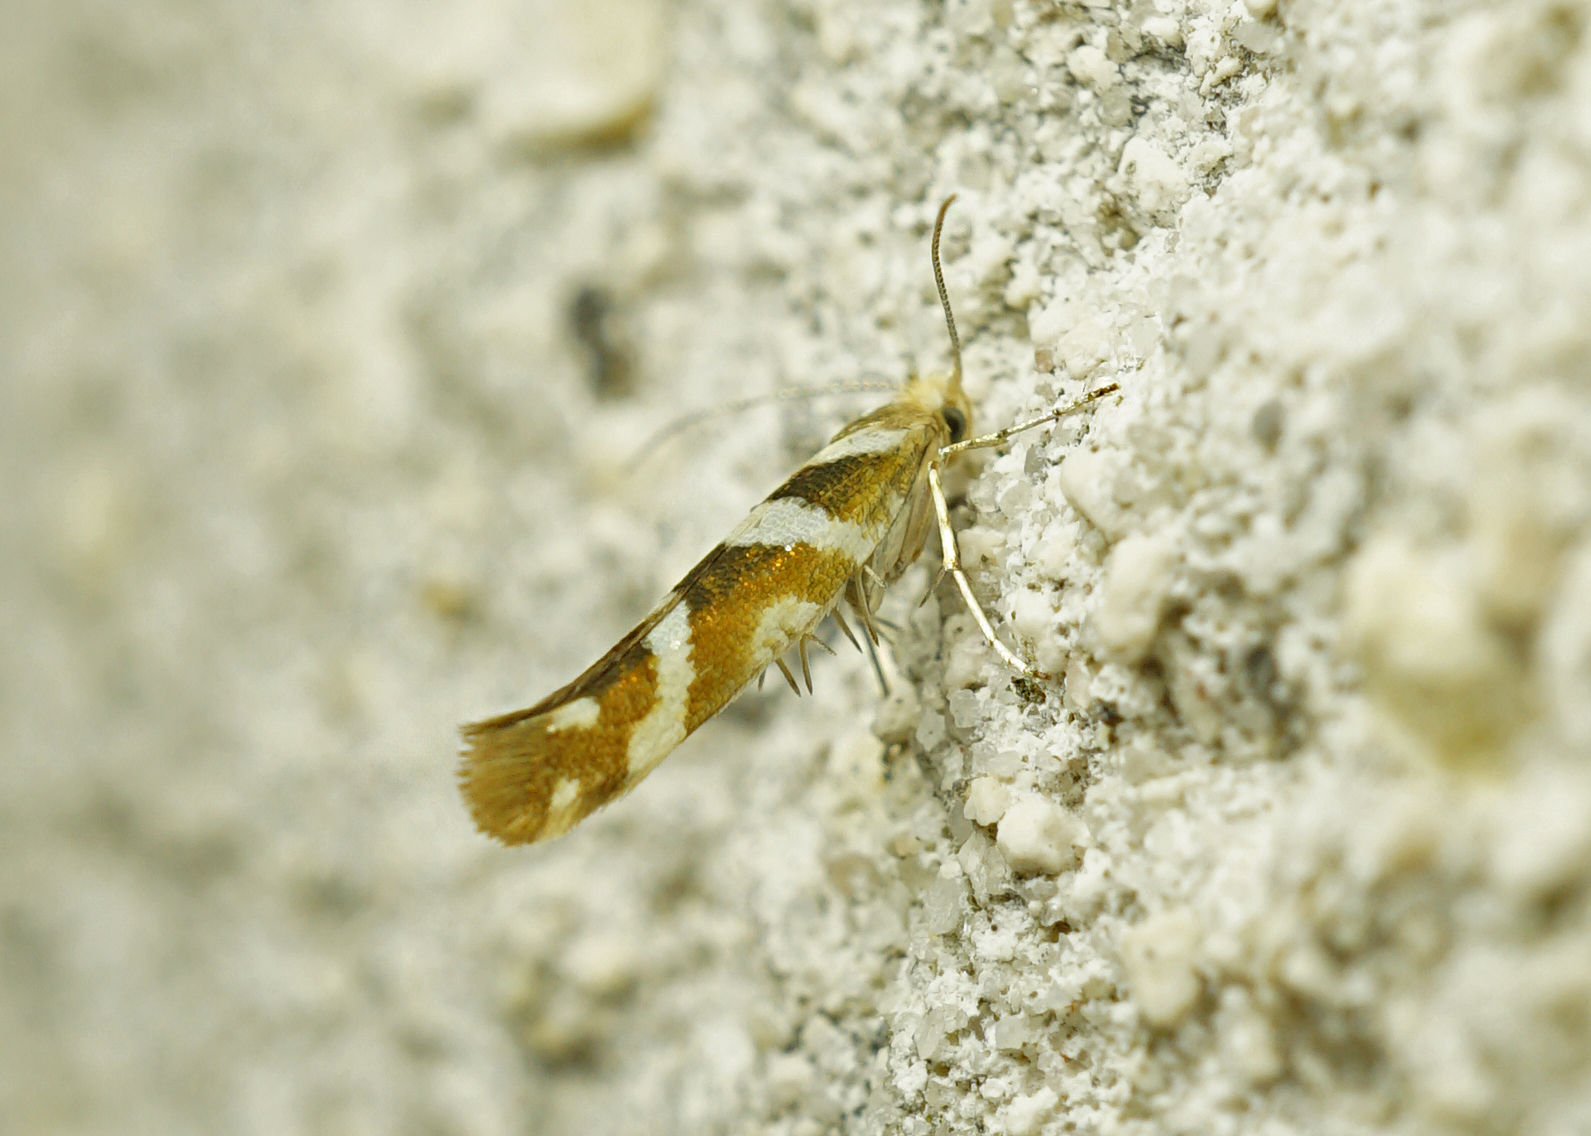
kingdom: Animalia
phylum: Arthropoda
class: Insecta
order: Lepidoptera
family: Argyresthiidae
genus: Argyresthia
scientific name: Argyresthia goedartella
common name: Golden argent
